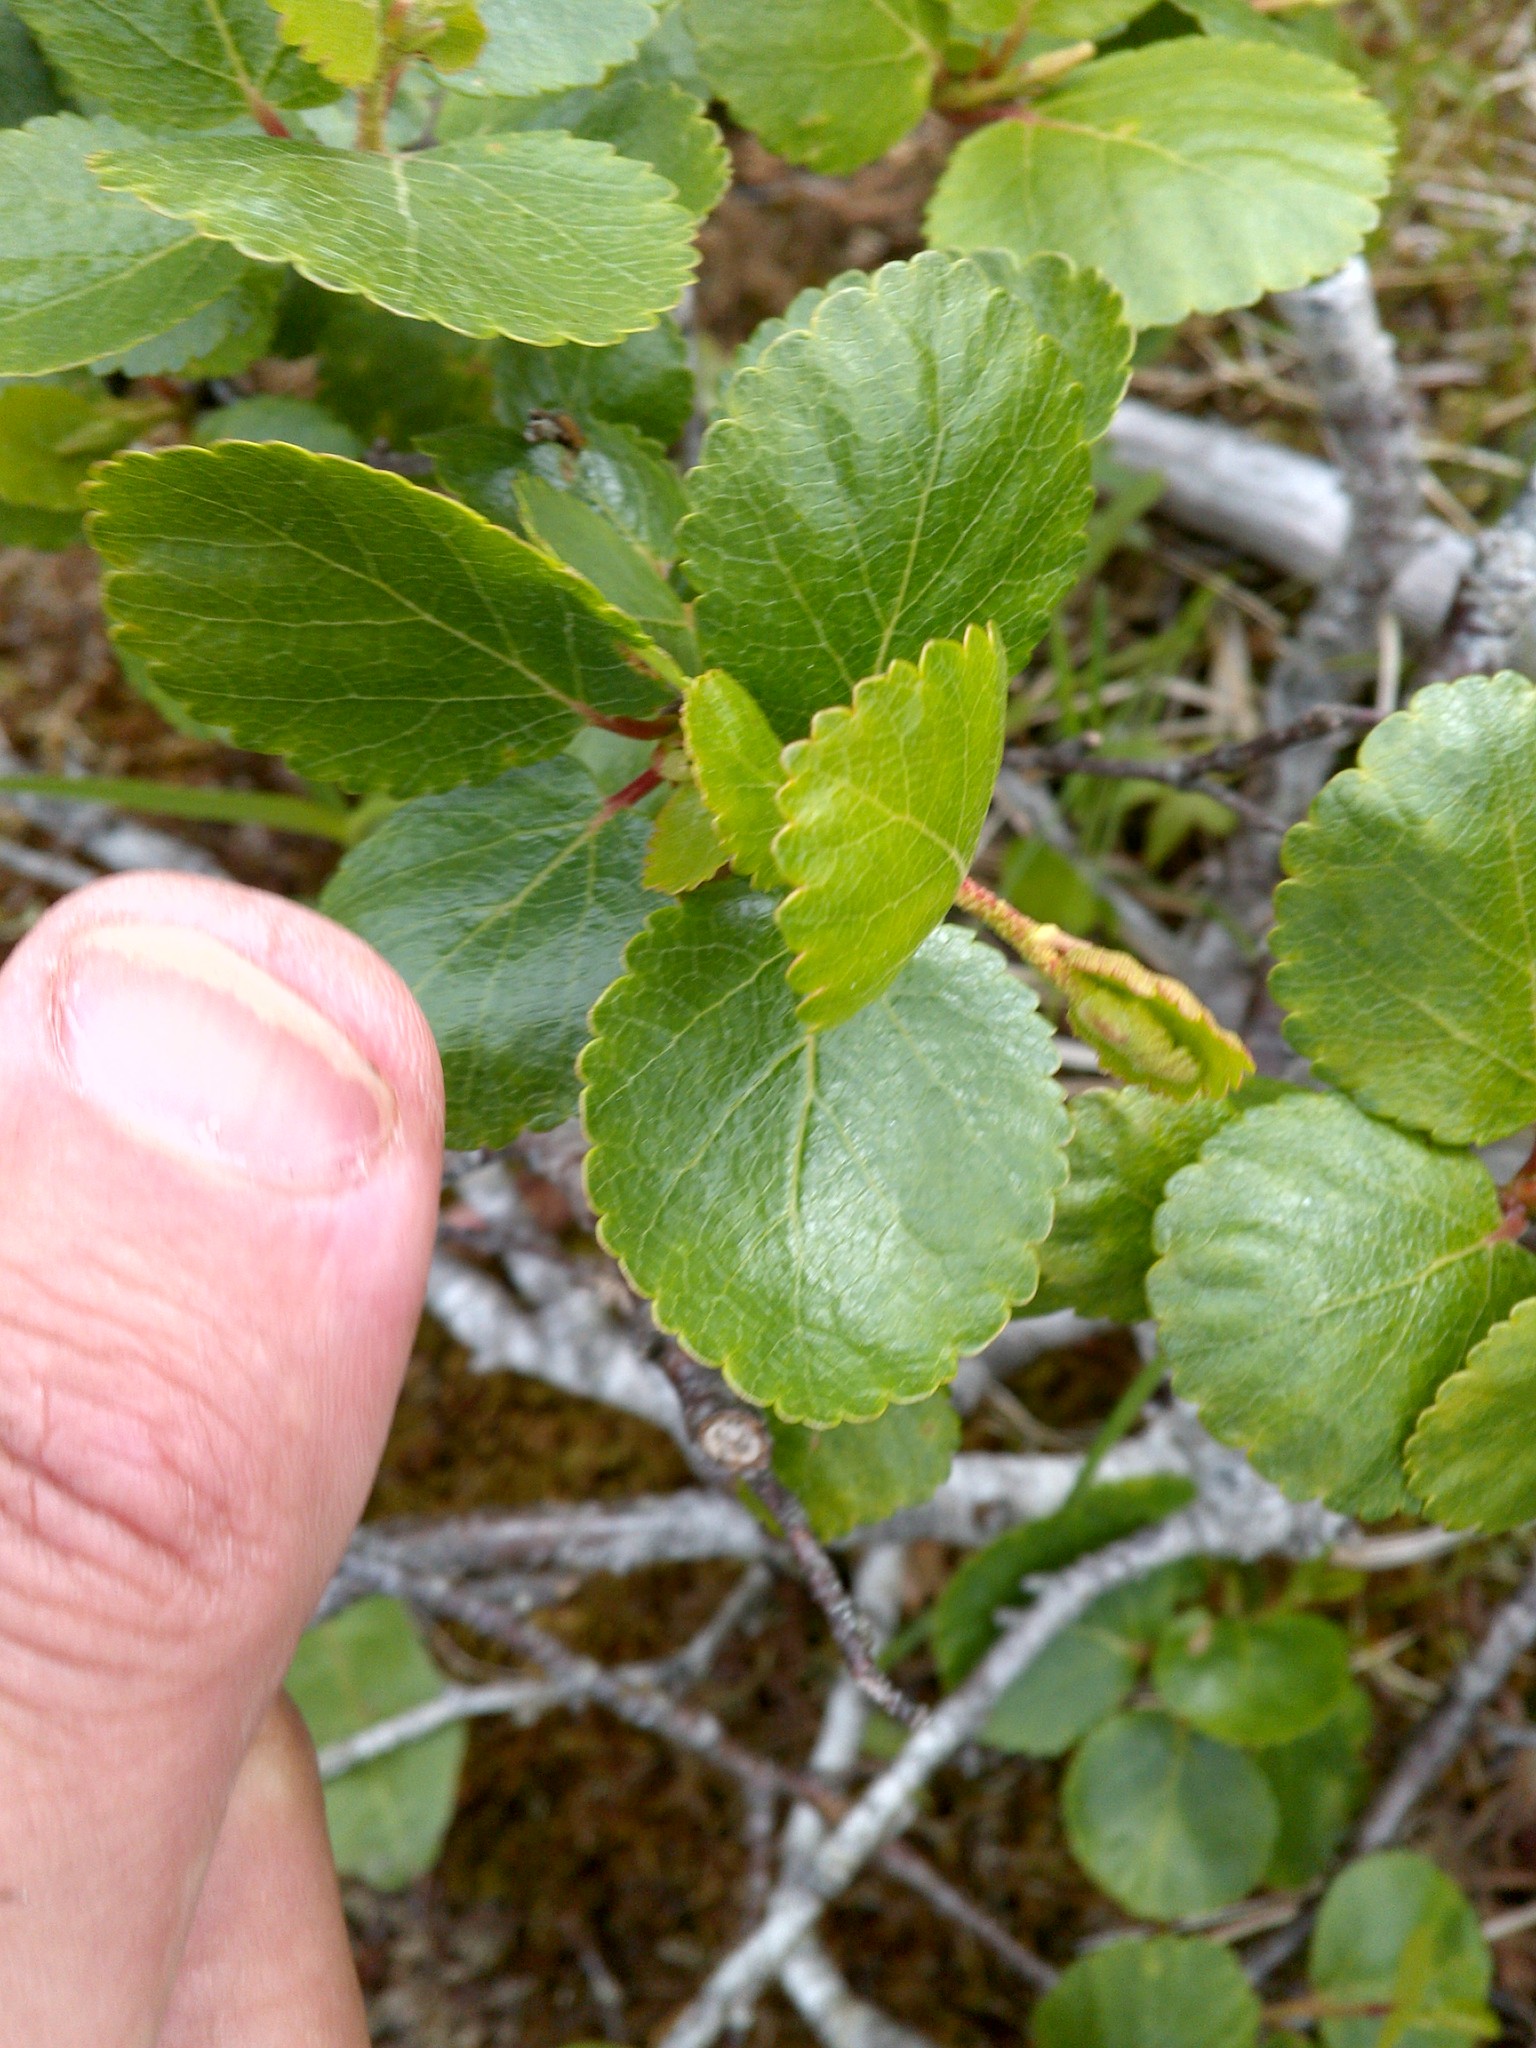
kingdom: Plantae
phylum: Tracheophyta
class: Magnoliopsida
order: Fagales
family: Betulaceae
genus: Betula
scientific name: Betula glandulosa
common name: Dwarf birch
